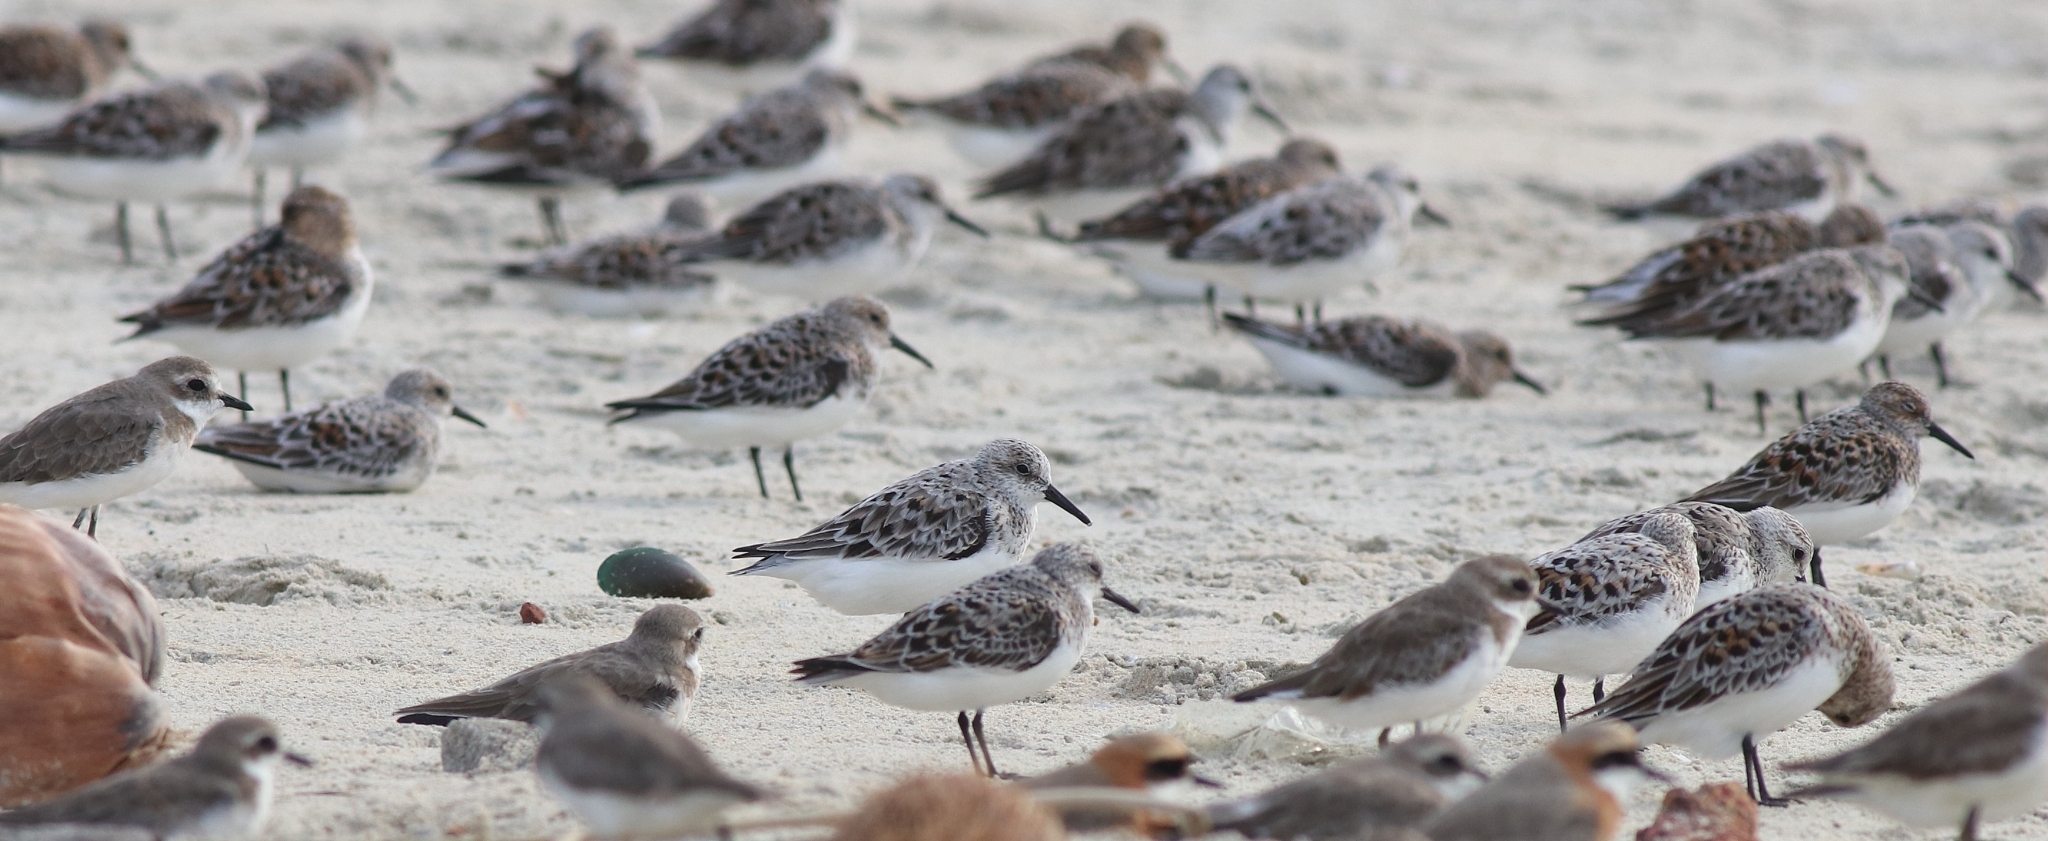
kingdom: Animalia
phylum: Chordata
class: Aves
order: Charadriiformes
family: Scolopacidae
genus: Calidris
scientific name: Calidris alba
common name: Sanderling
